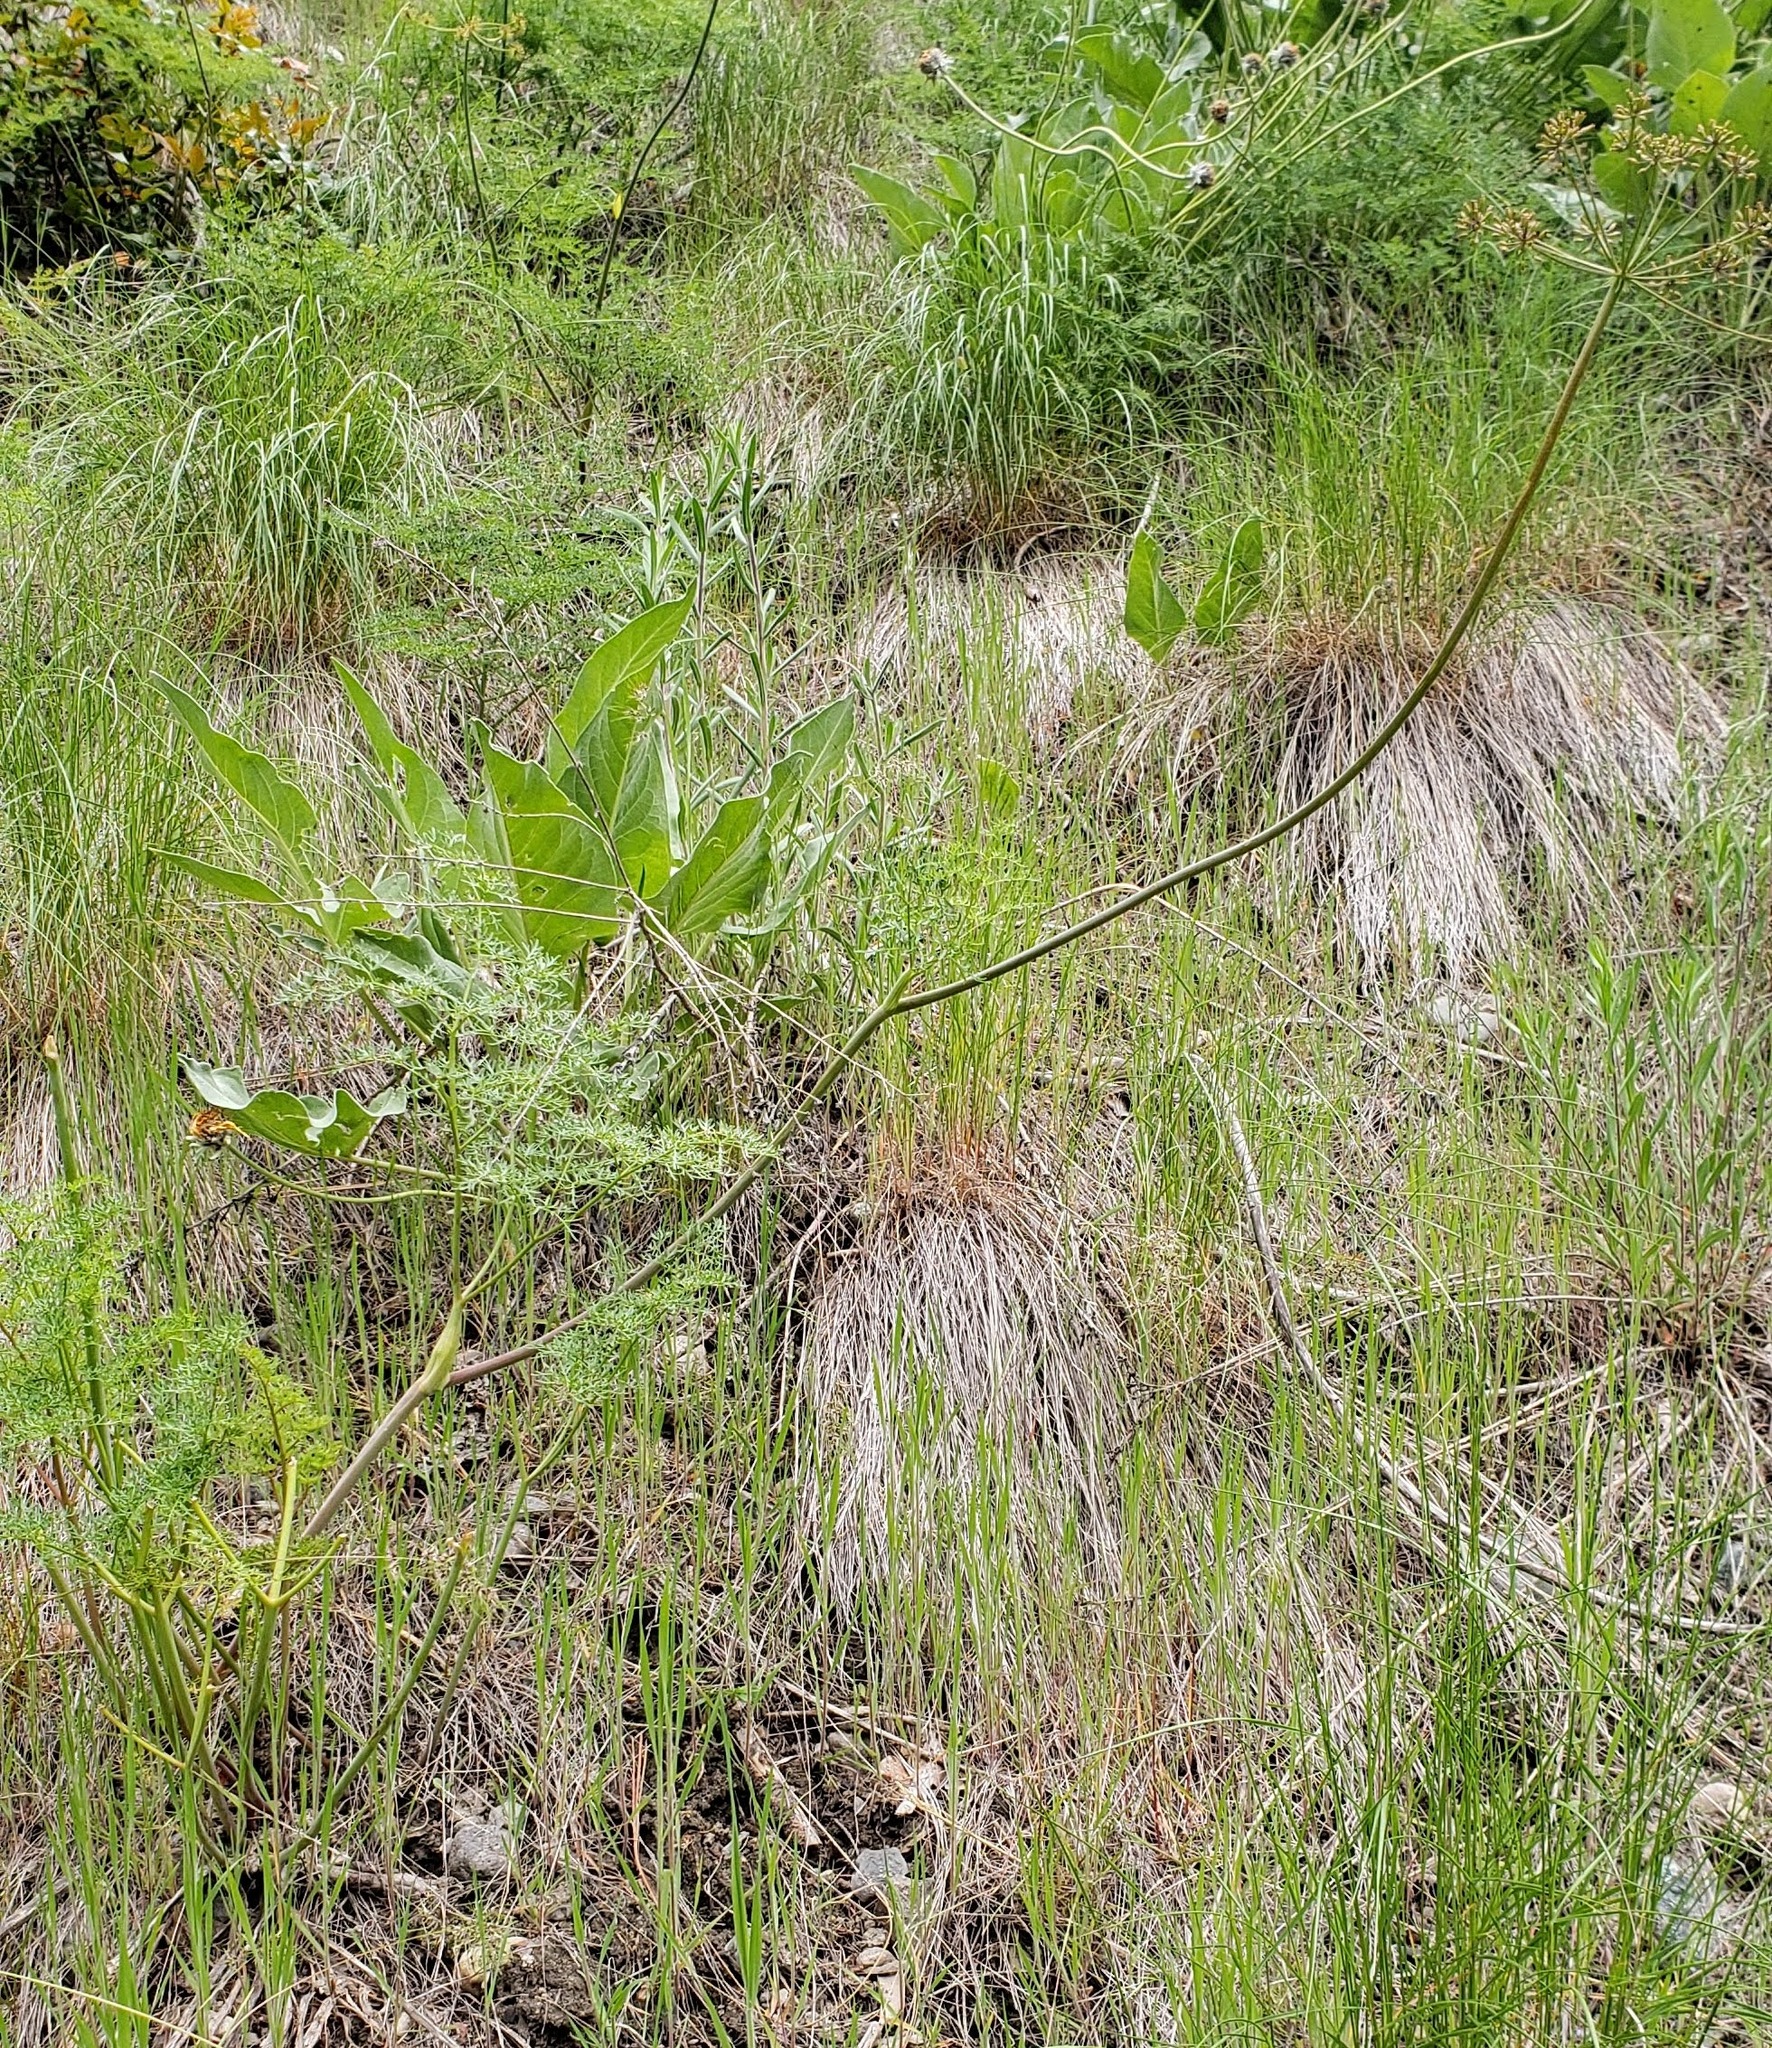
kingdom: Plantae
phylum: Tracheophyta
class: Magnoliopsida
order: Apiales
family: Apiaceae
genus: Lomatium
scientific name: Lomatium multifidum
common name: Carrot-leaved biscuitroot
